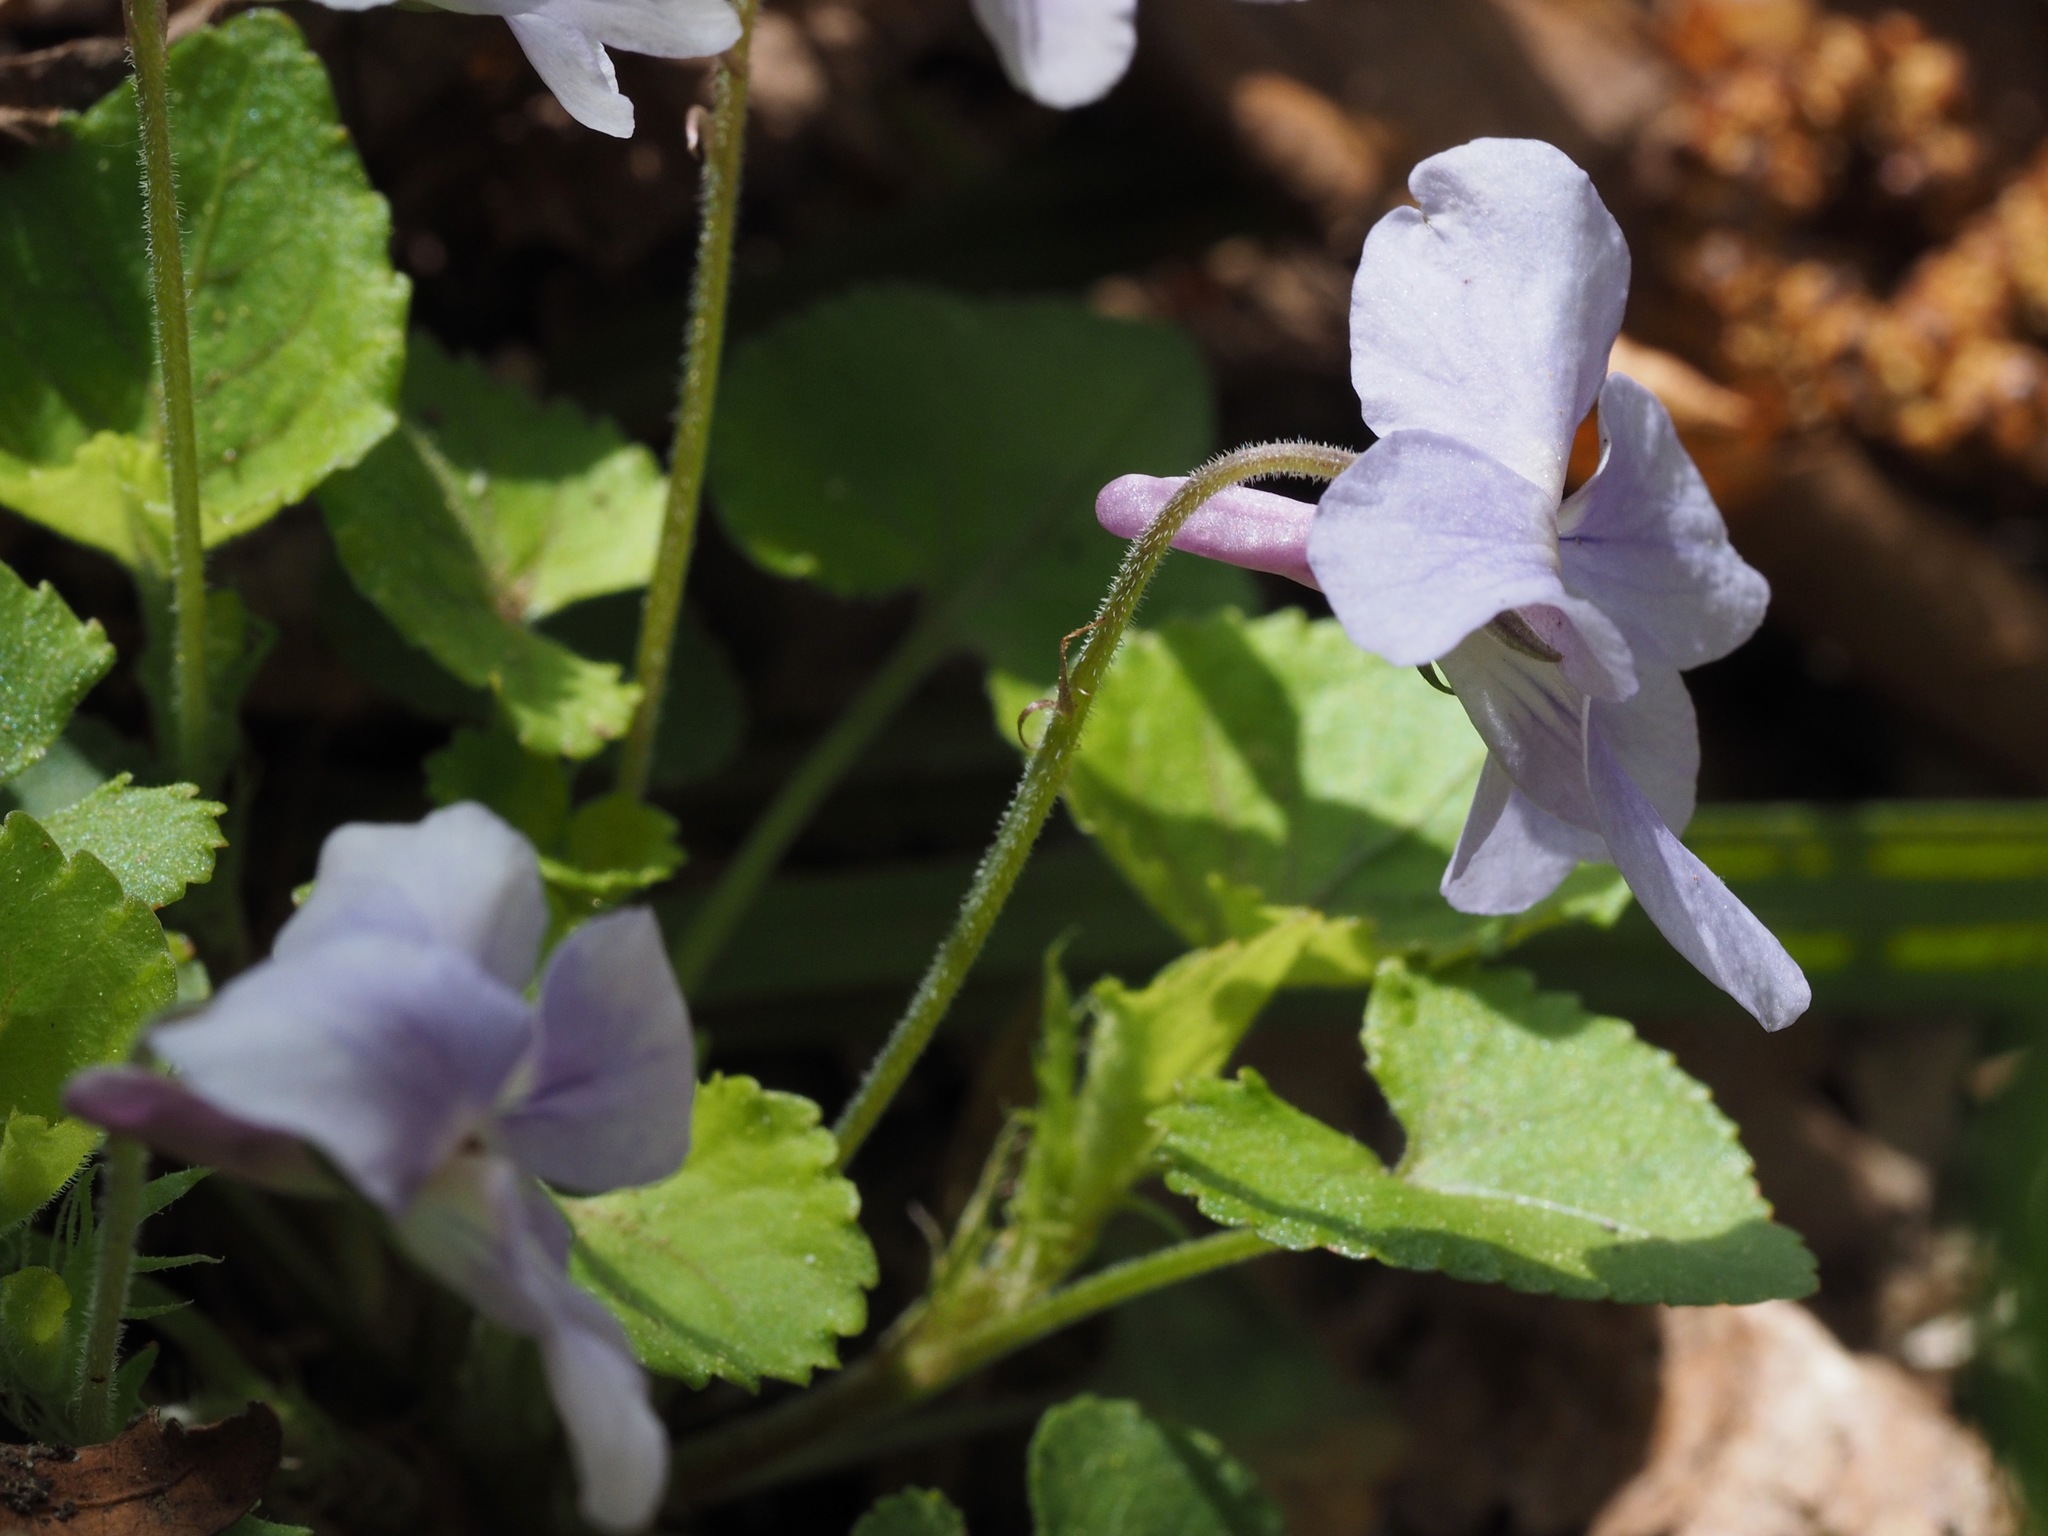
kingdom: Plantae
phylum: Tracheophyta
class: Magnoliopsida
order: Malpighiales
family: Violaceae
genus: Viola
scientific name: Viola grypoceras
